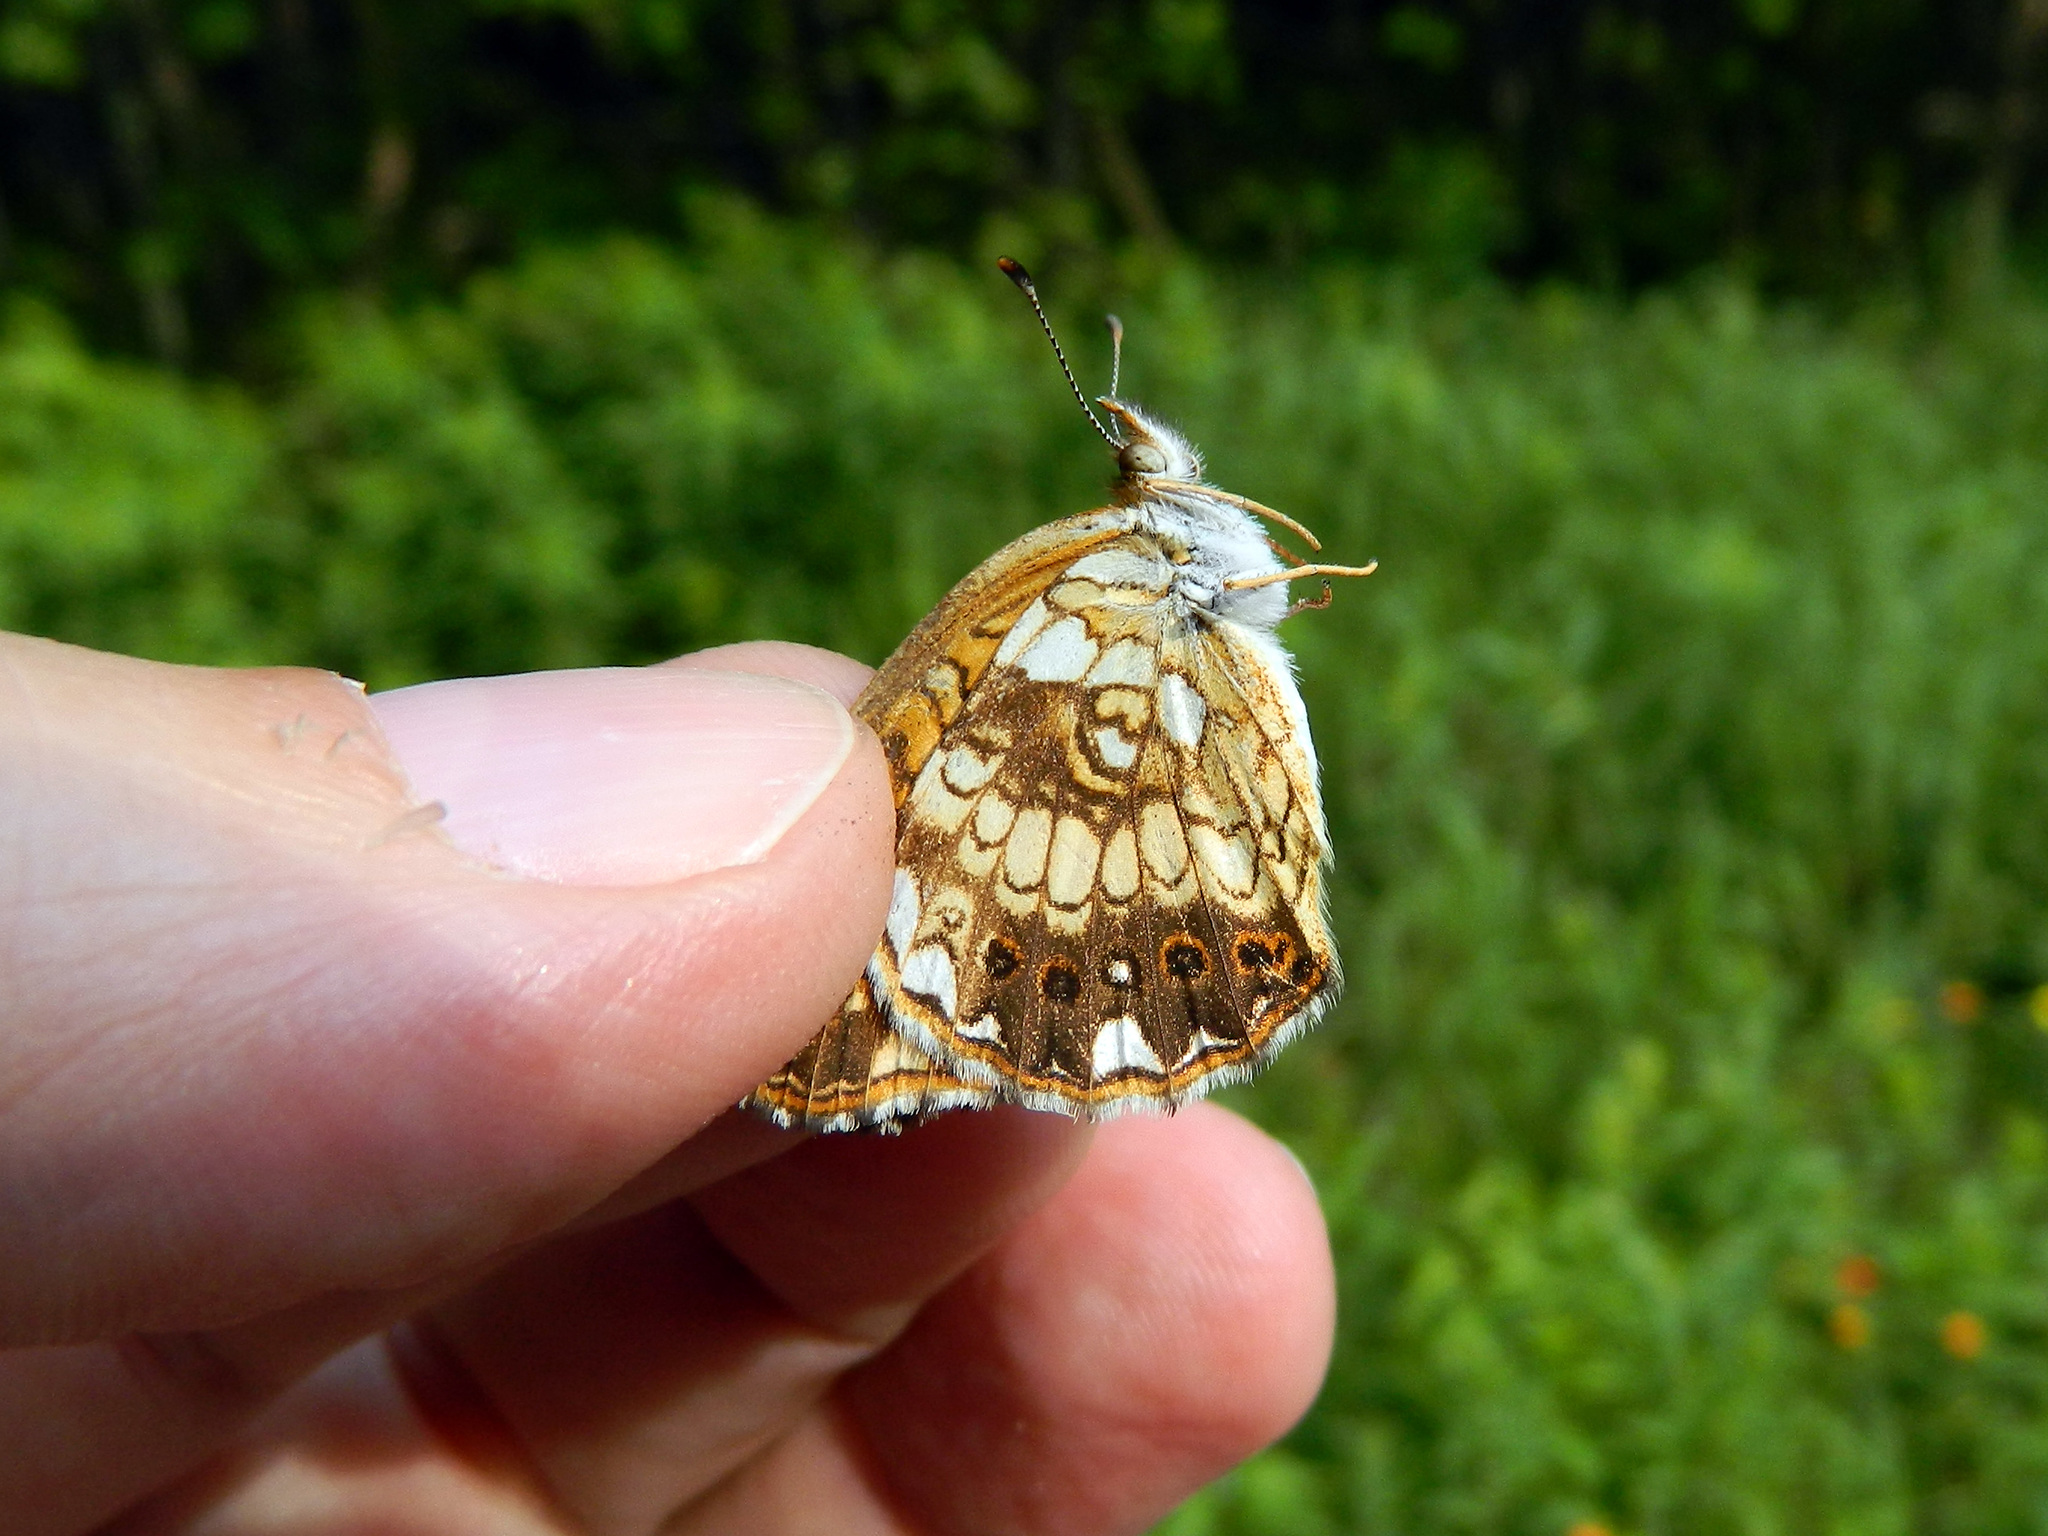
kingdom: Animalia
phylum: Arthropoda
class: Insecta
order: Lepidoptera
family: Nymphalidae
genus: Chlosyne
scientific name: Chlosyne nycteis
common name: Silvery checkerspot
